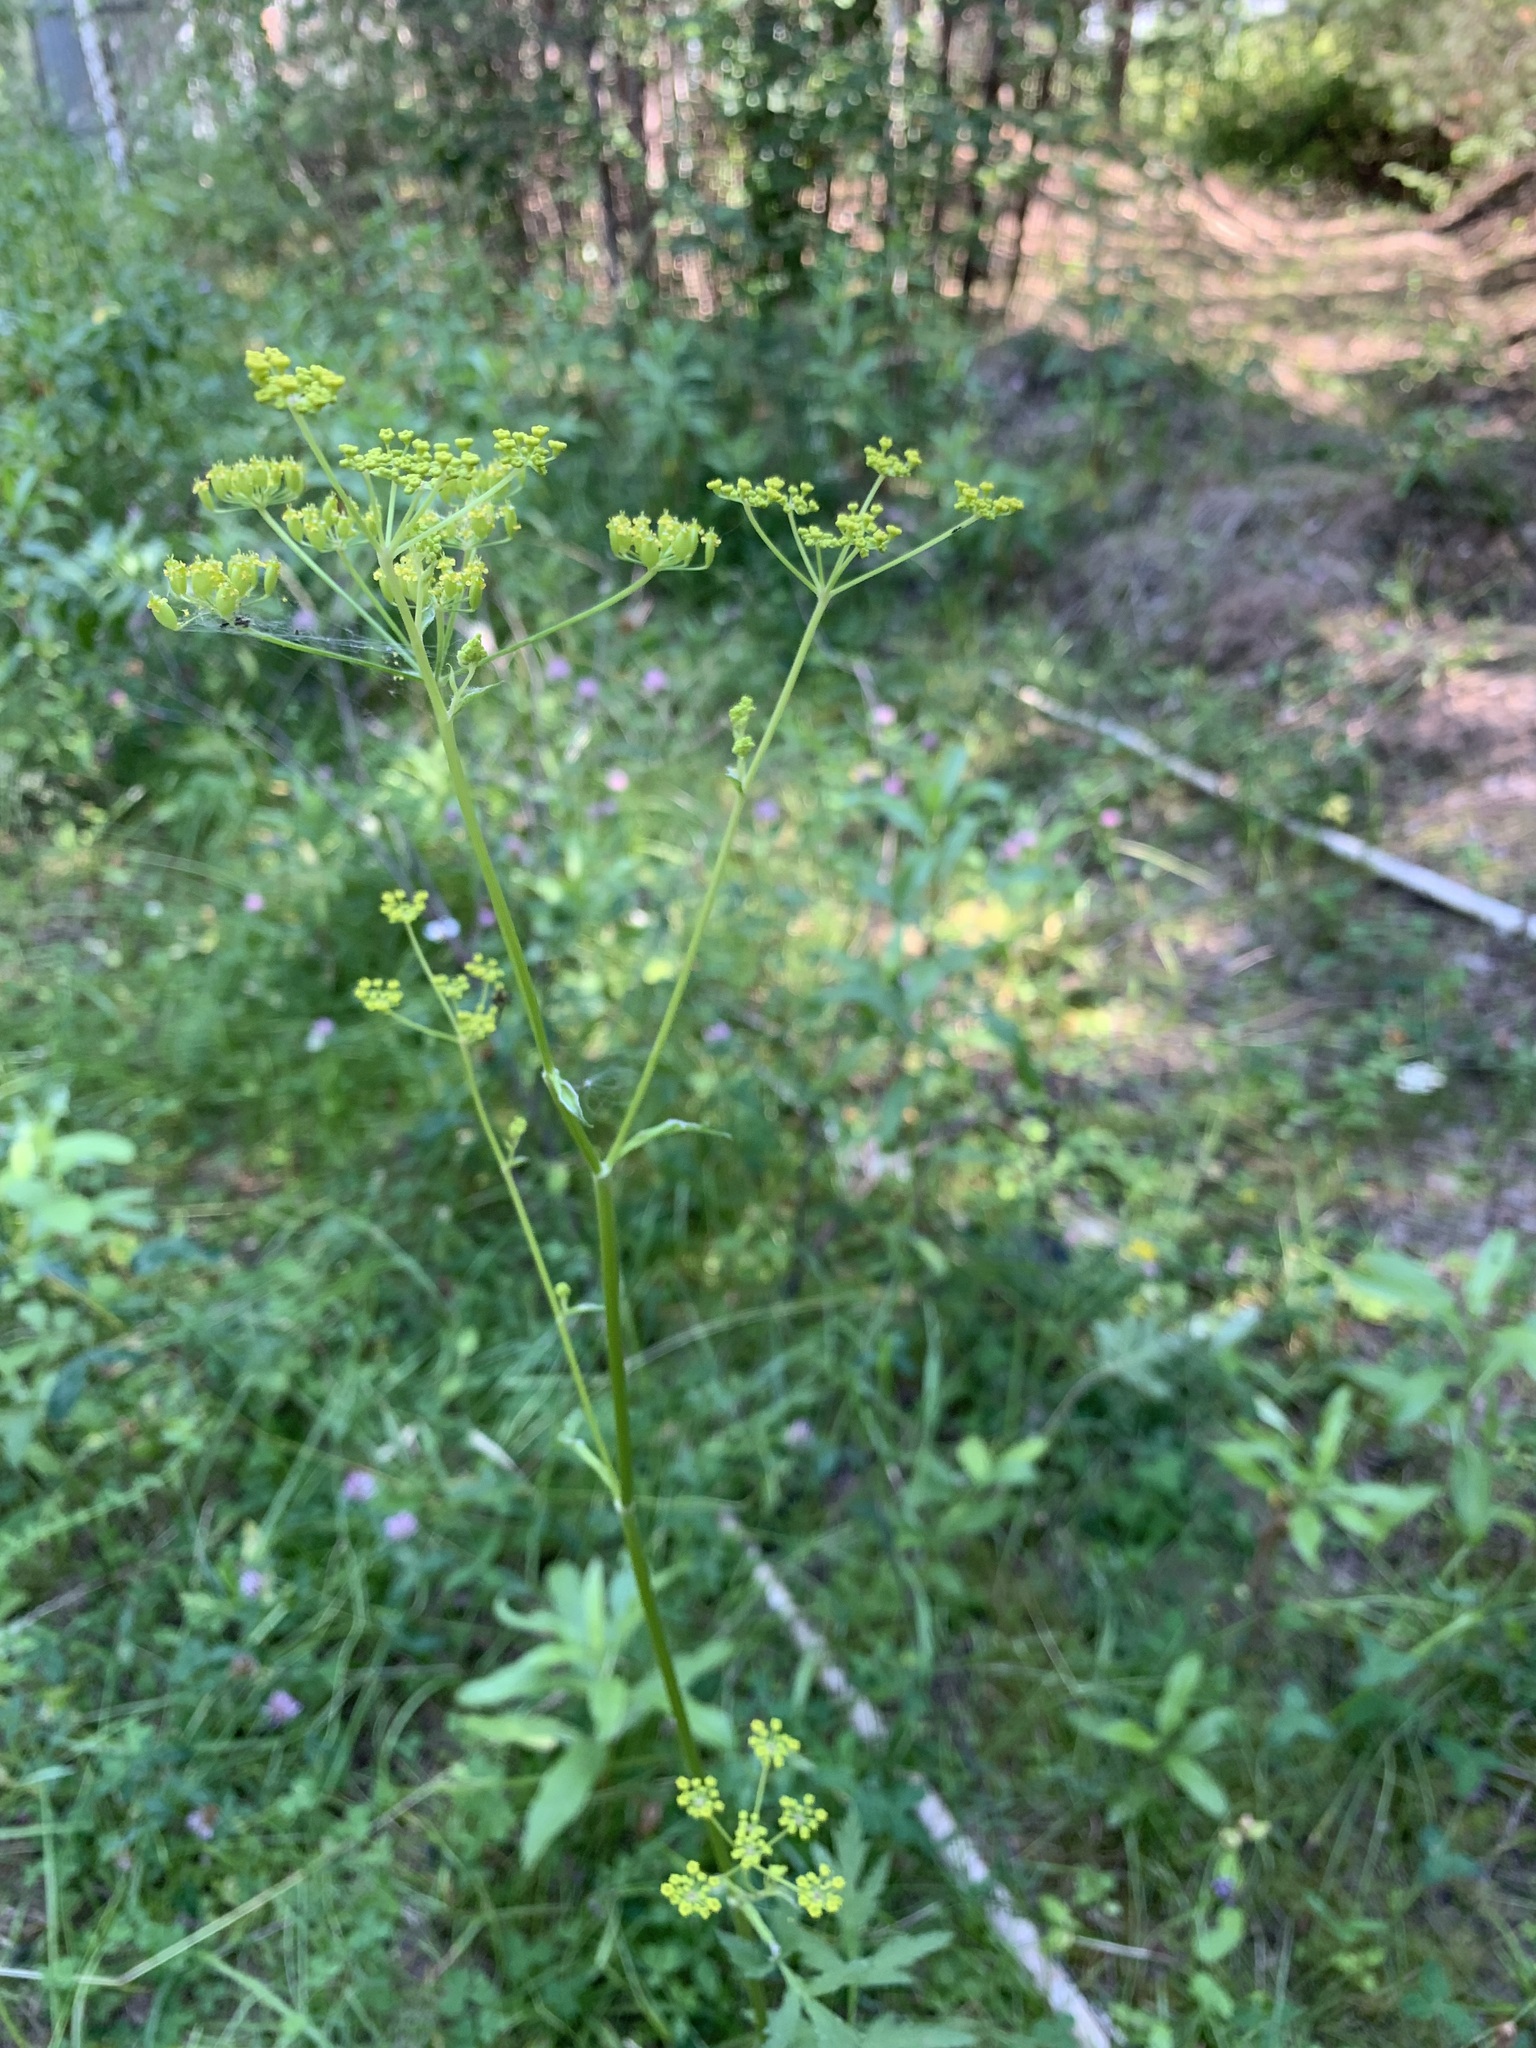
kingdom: Plantae
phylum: Tracheophyta
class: Magnoliopsida
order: Apiales
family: Apiaceae
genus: Pastinaca
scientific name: Pastinaca sativa
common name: Wild parsnip
